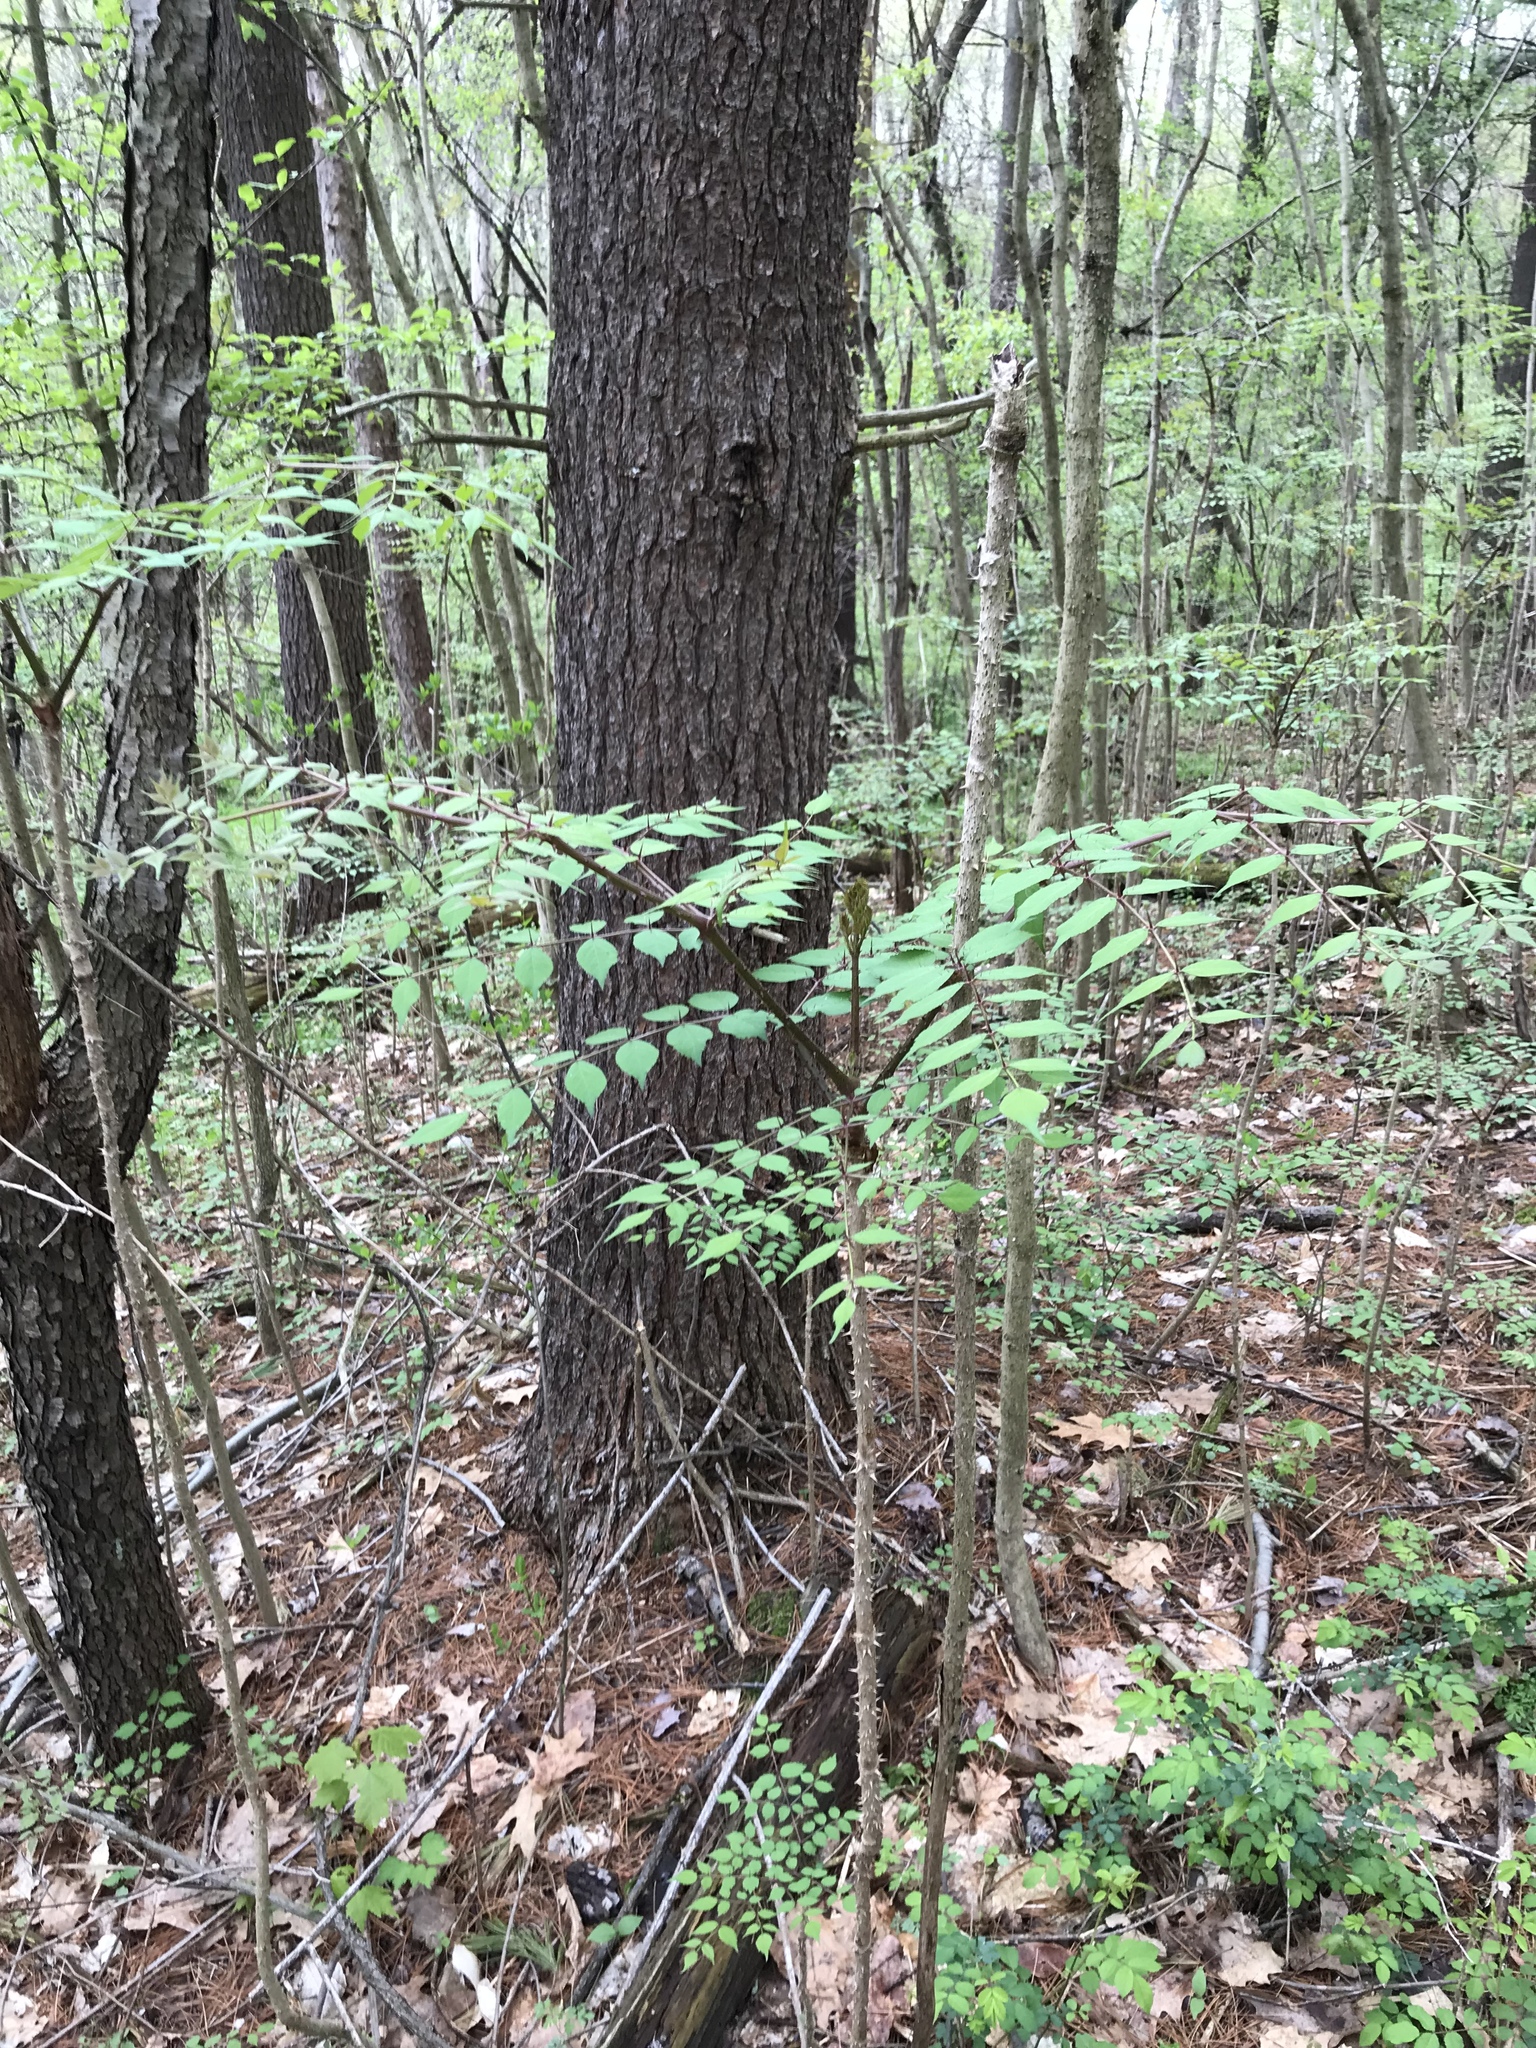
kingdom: Plantae
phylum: Tracheophyta
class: Magnoliopsida
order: Apiales
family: Araliaceae
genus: Aralia
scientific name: Aralia spinosa
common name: Hercules'-club
